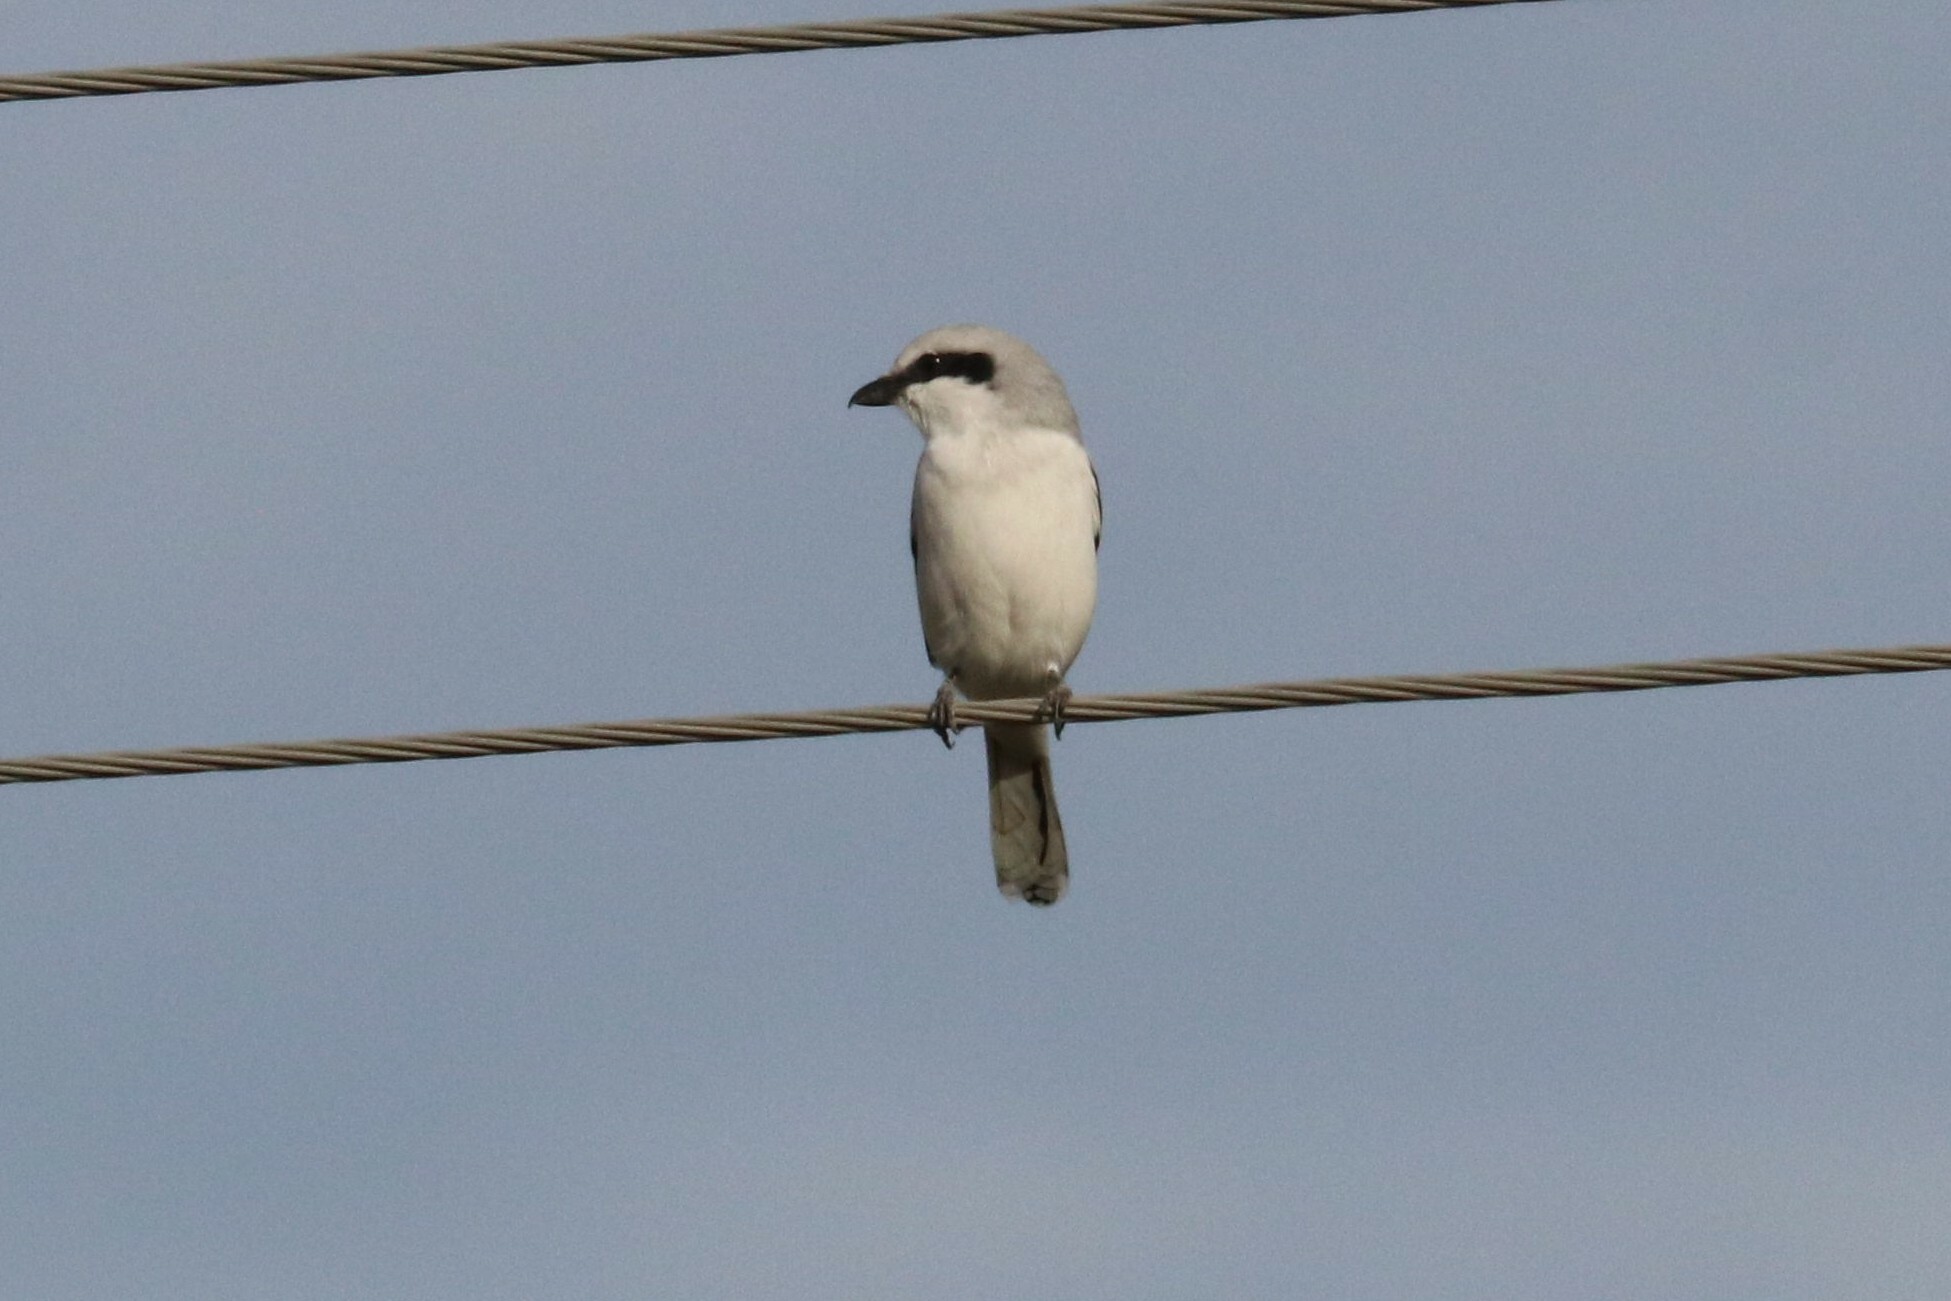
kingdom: Animalia
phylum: Chordata
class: Aves
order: Passeriformes
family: Laniidae
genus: Lanius
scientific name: Lanius excubitor
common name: Great grey shrike
